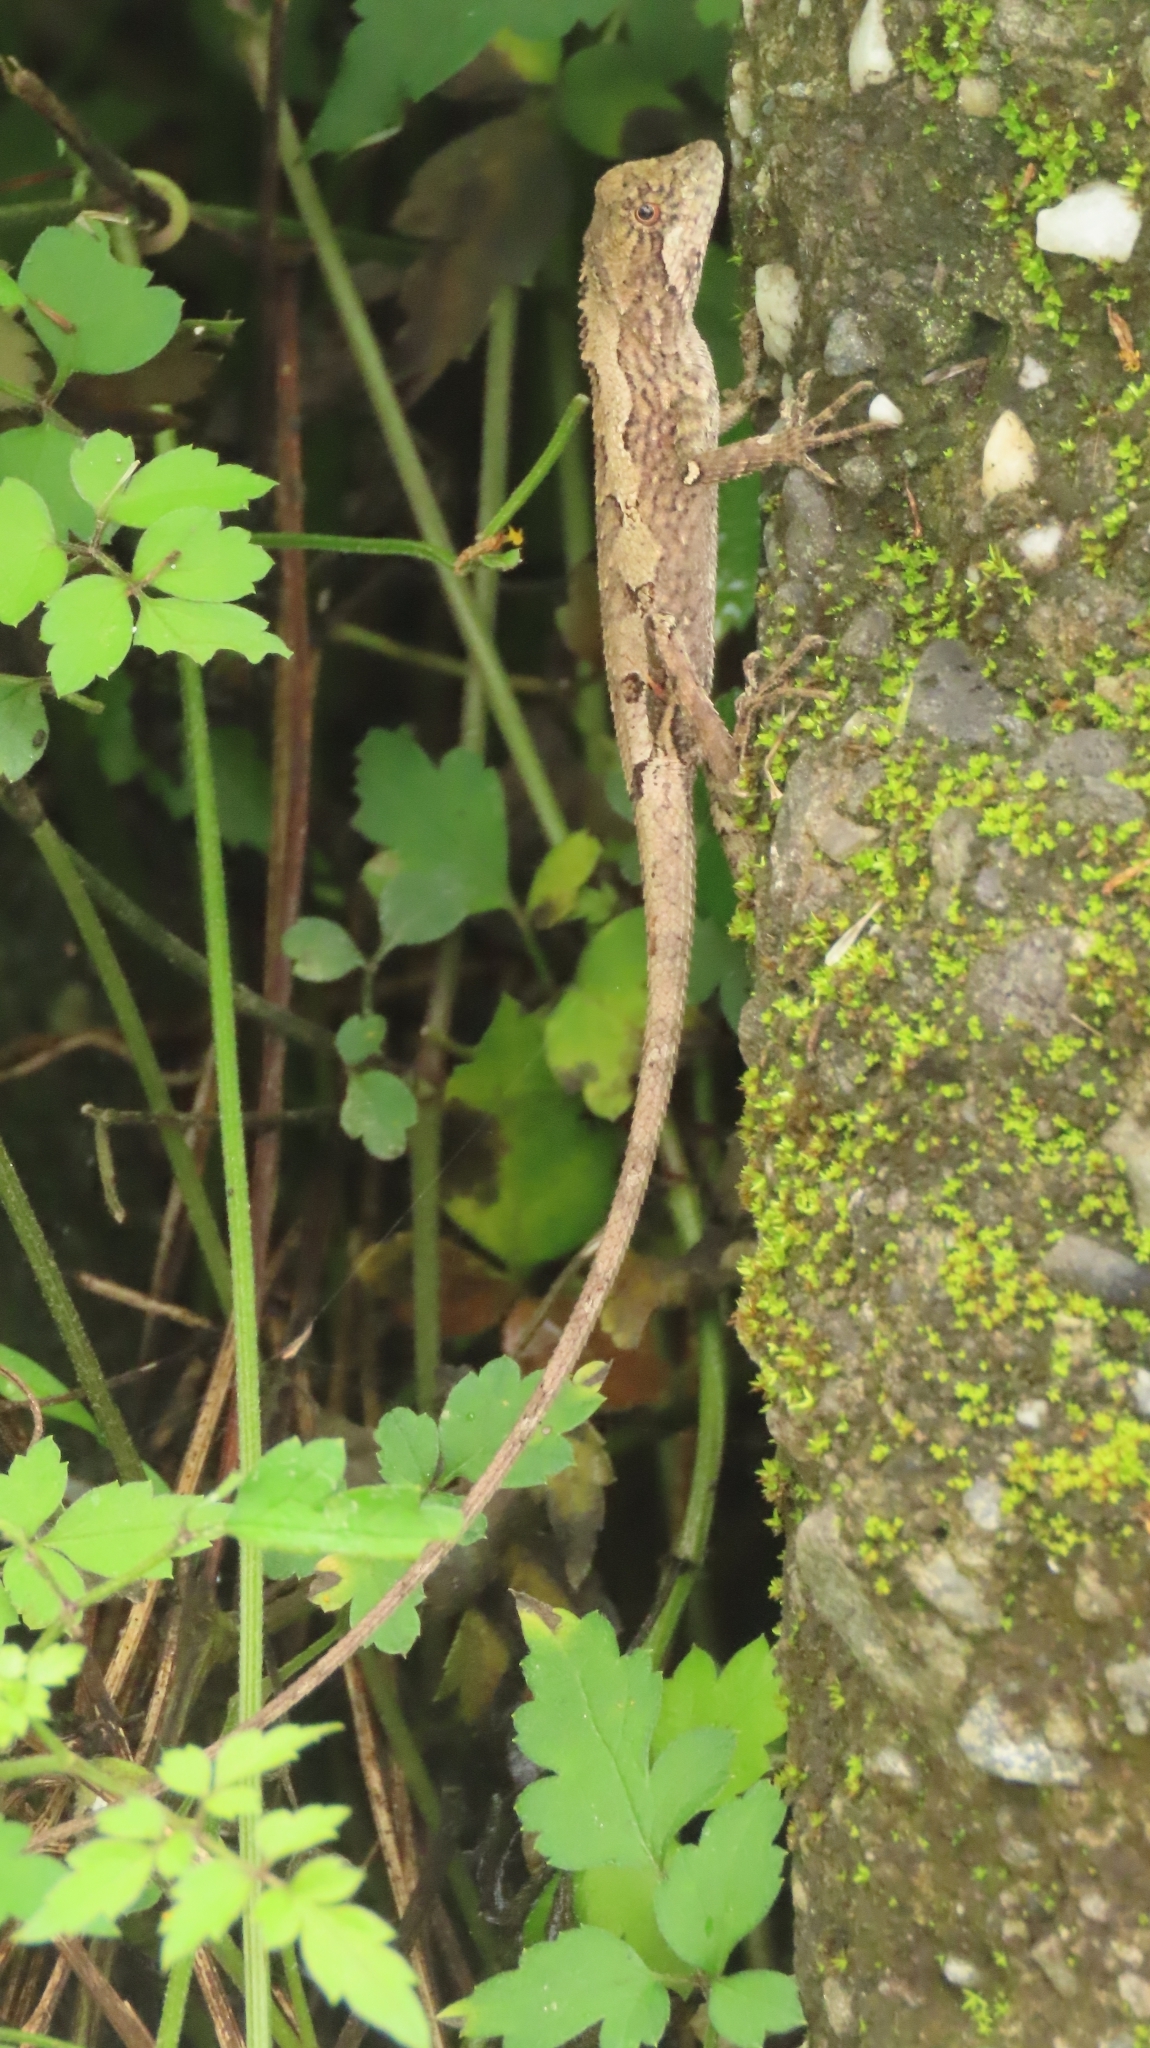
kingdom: Animalia
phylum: Chordata
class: Squamata
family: Agamidae
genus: Diploderma
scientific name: Diploderma swinhonis
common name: Taiwan japalure
